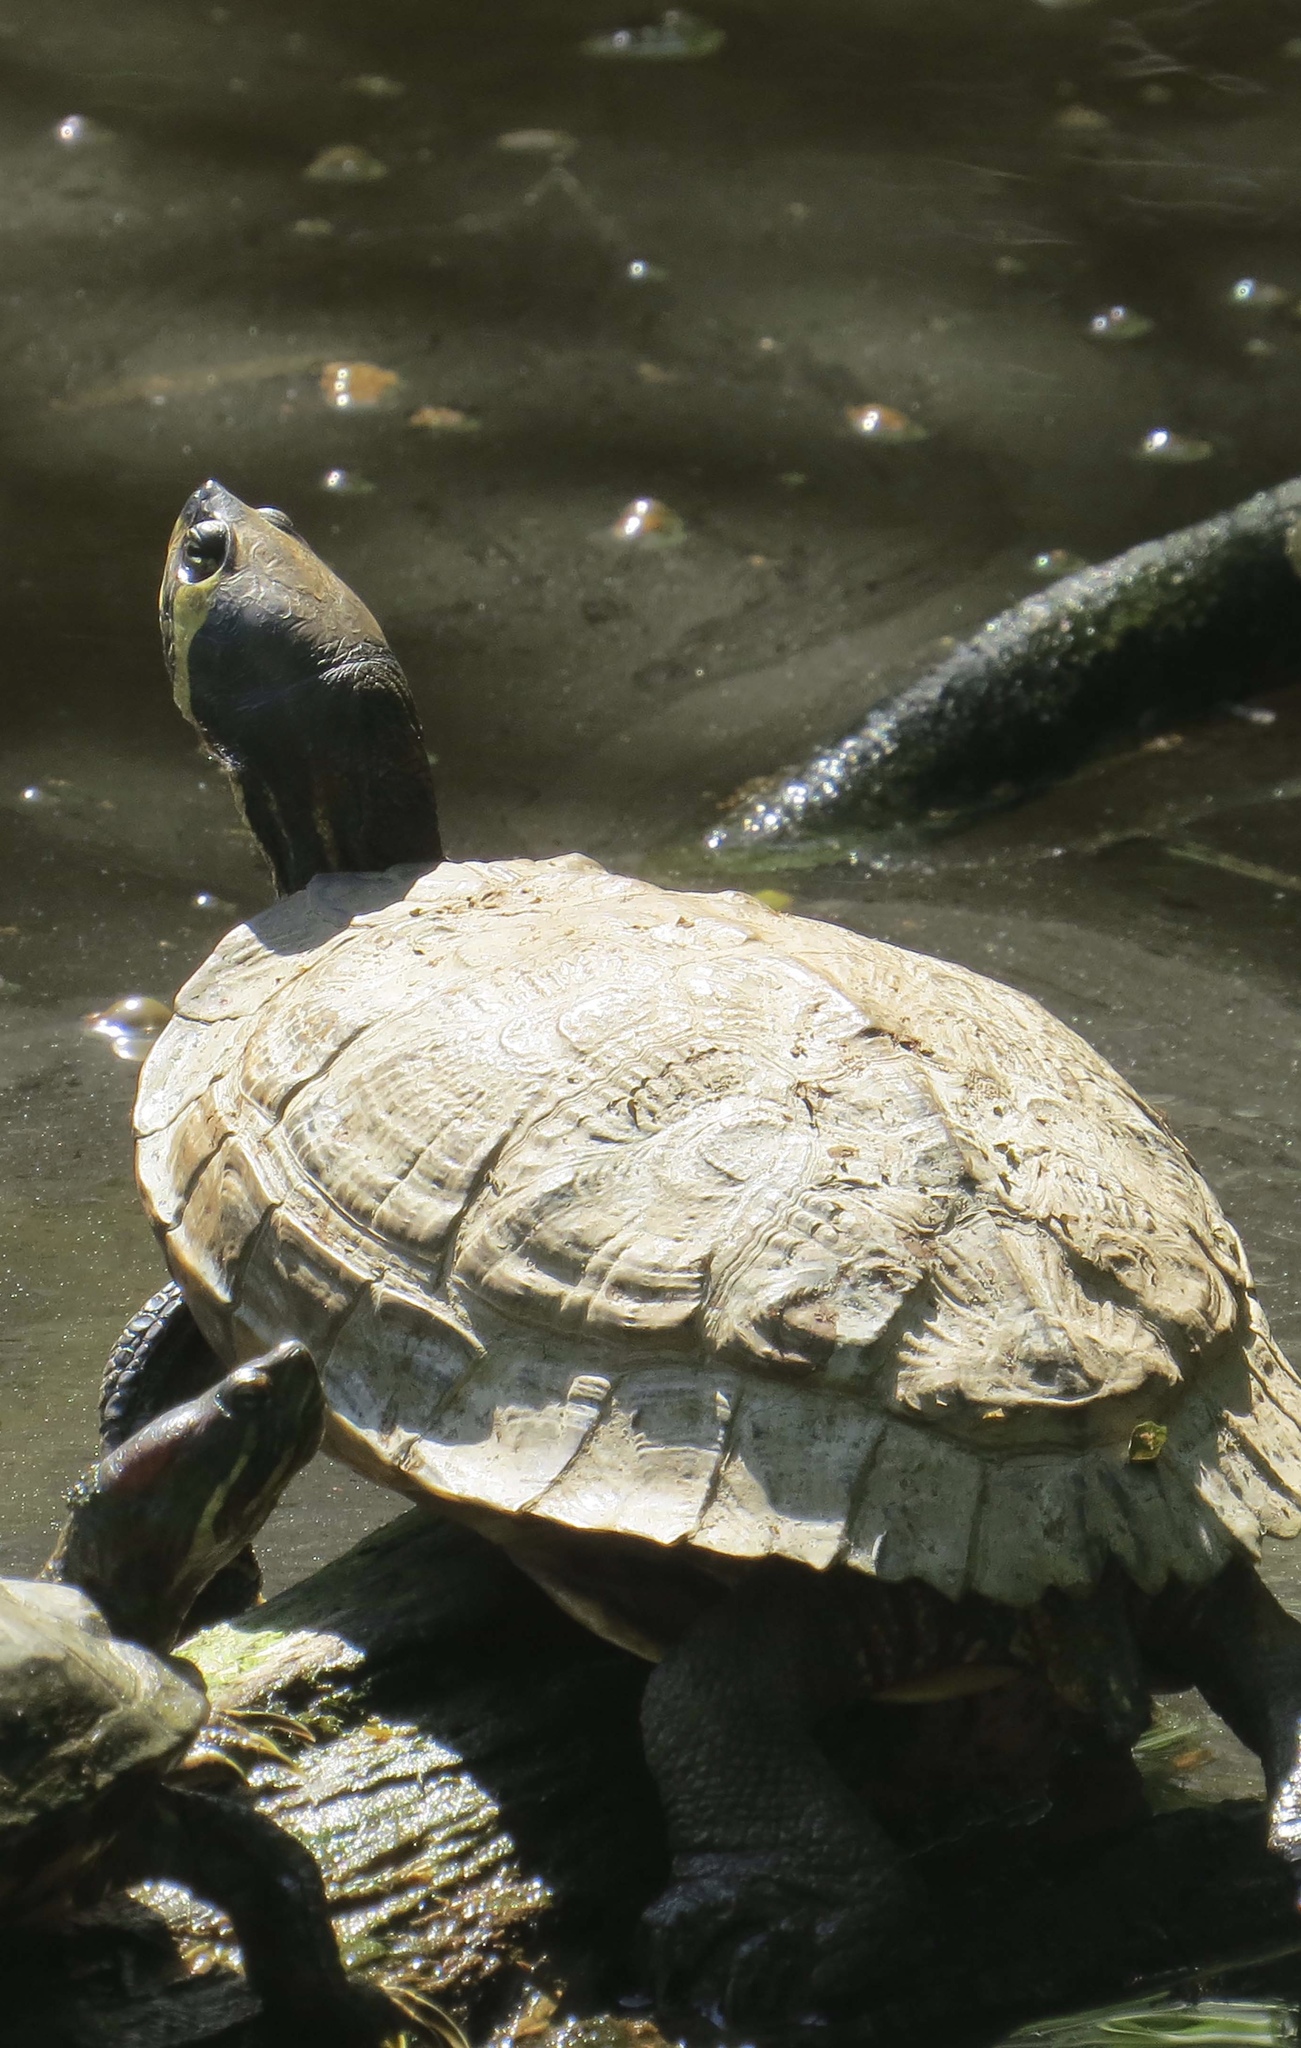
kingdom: Animalia
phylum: Chordata
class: Testudines
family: Emydidae
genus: Trachemys
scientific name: Trachemys scripta
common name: Slider
